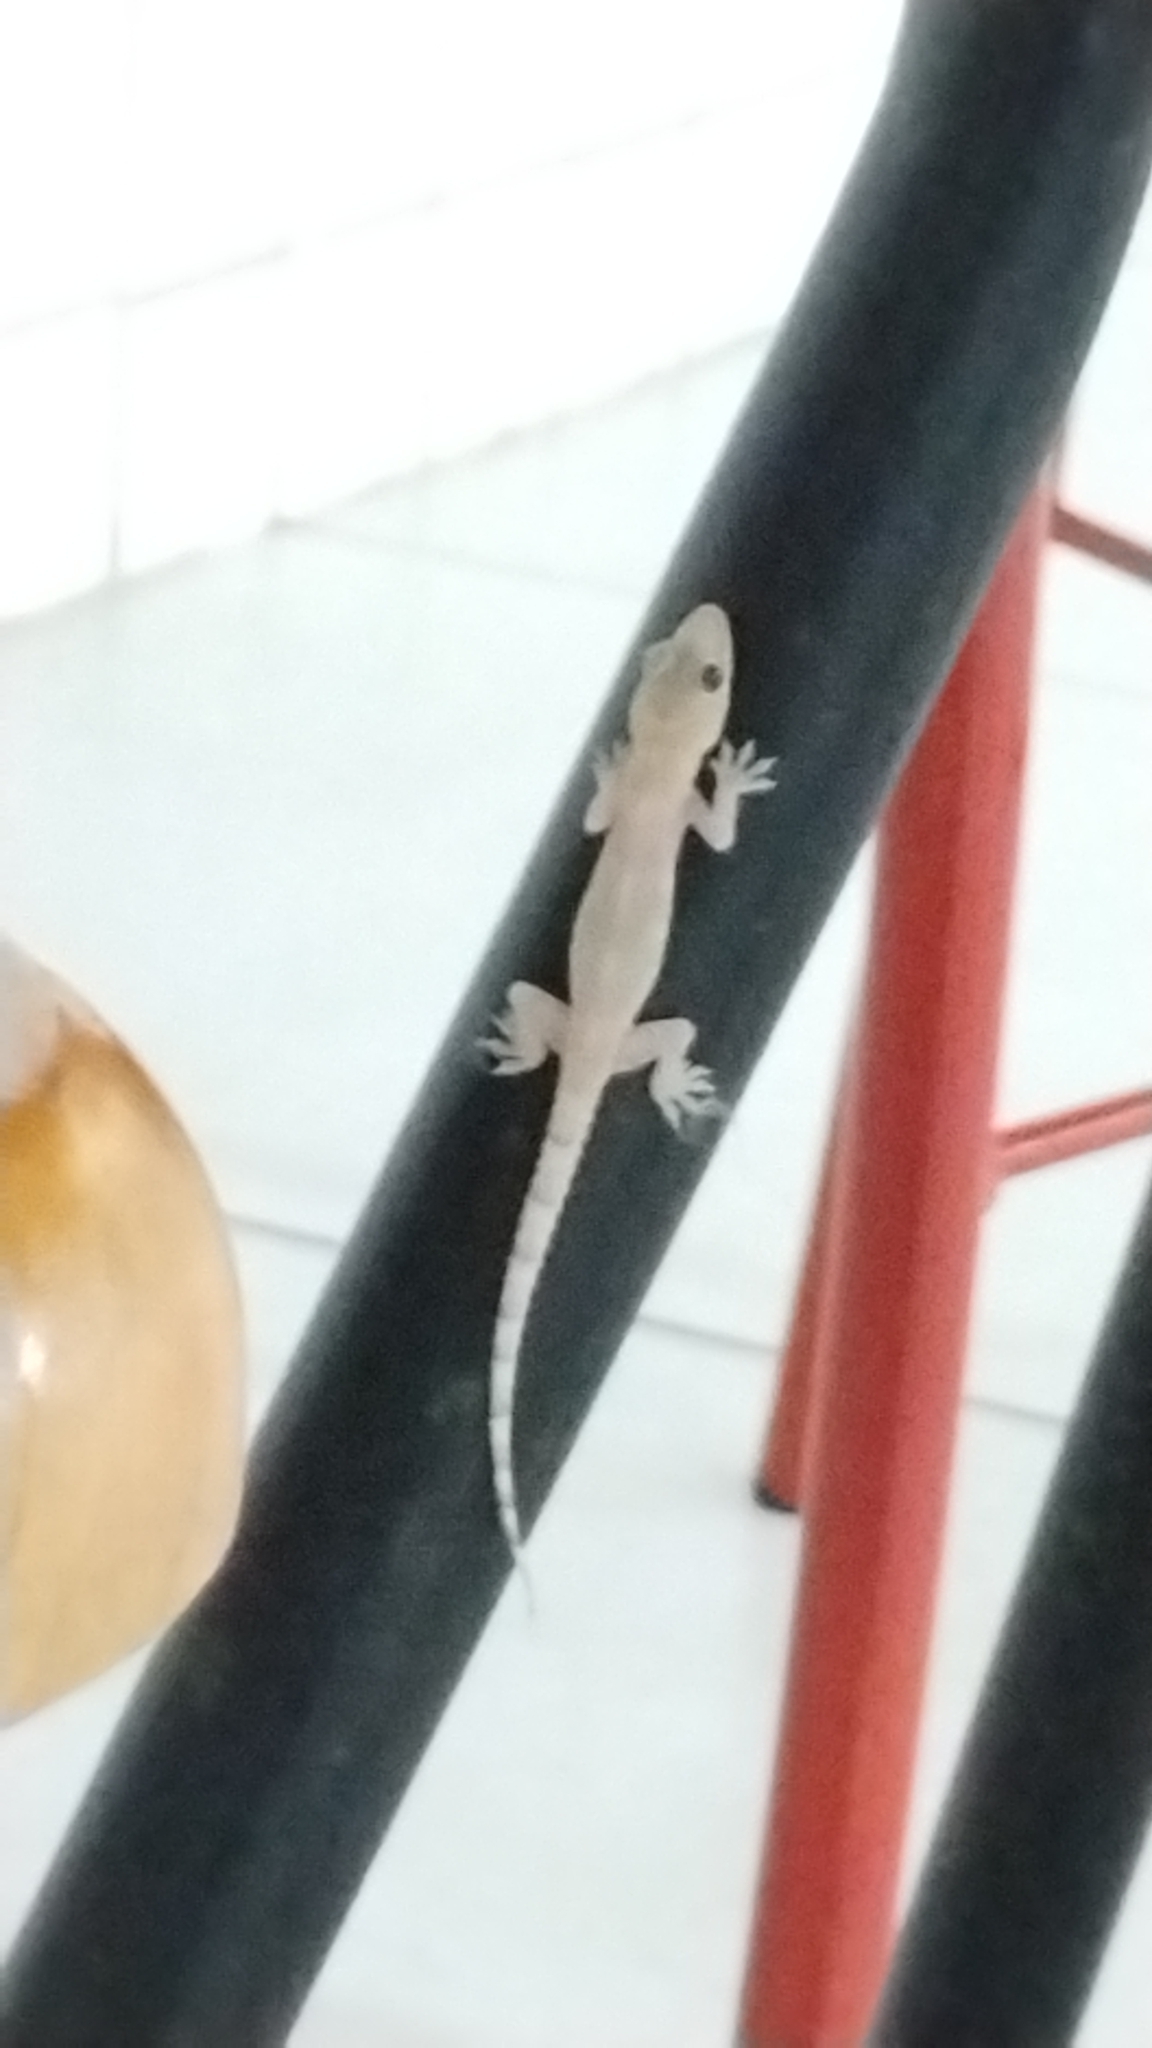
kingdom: Animalia
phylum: Chordata
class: Squamata
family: Gekkonidae
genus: Hemidactylus
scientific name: Hemidactylus mabouia
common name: House gecko
